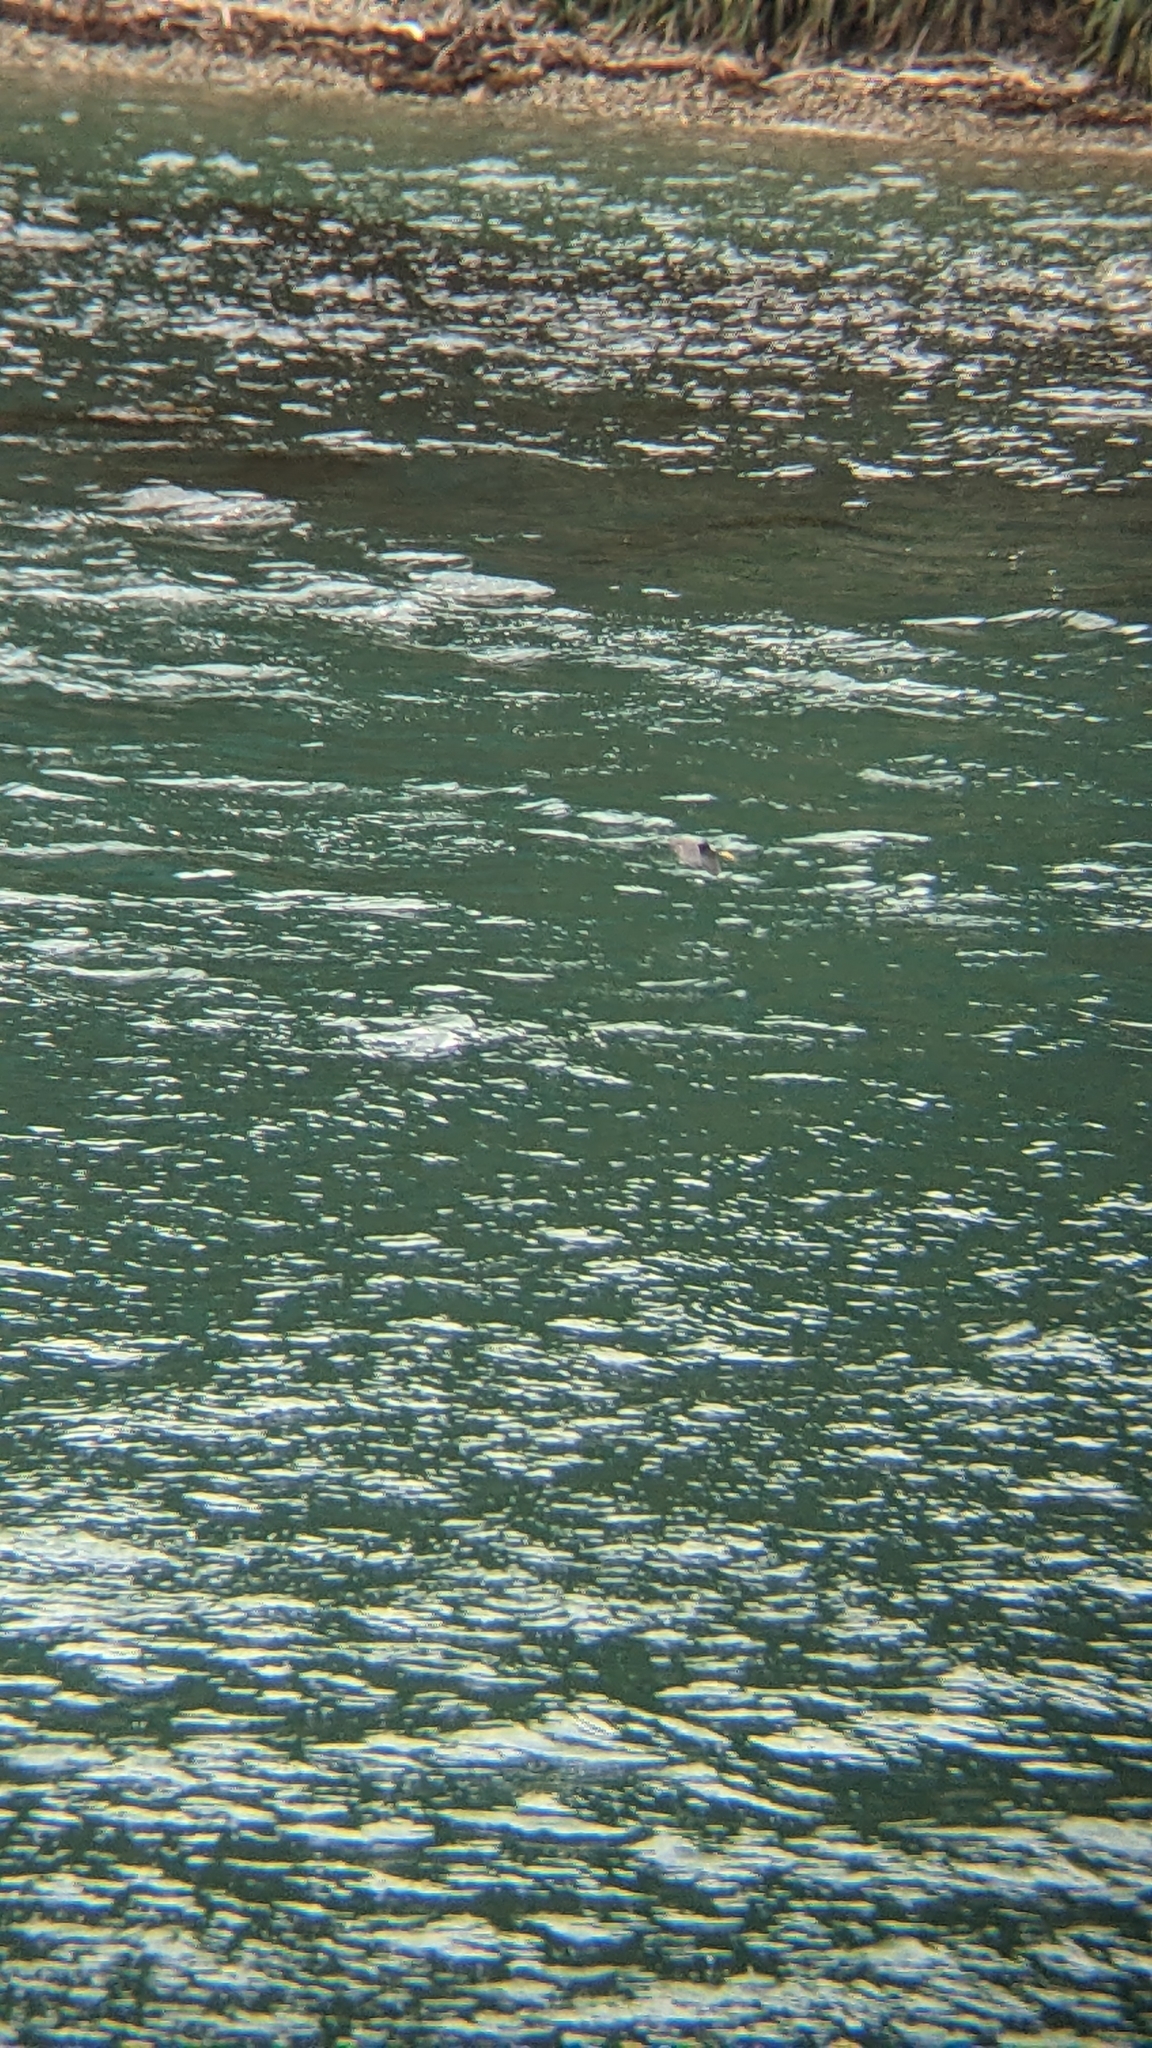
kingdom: Animalia
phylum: Chordata
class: Aves
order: Pelecaniformes
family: Ardeidae
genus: Egretta
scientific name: Egretta sacra
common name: Pacific reef heron
